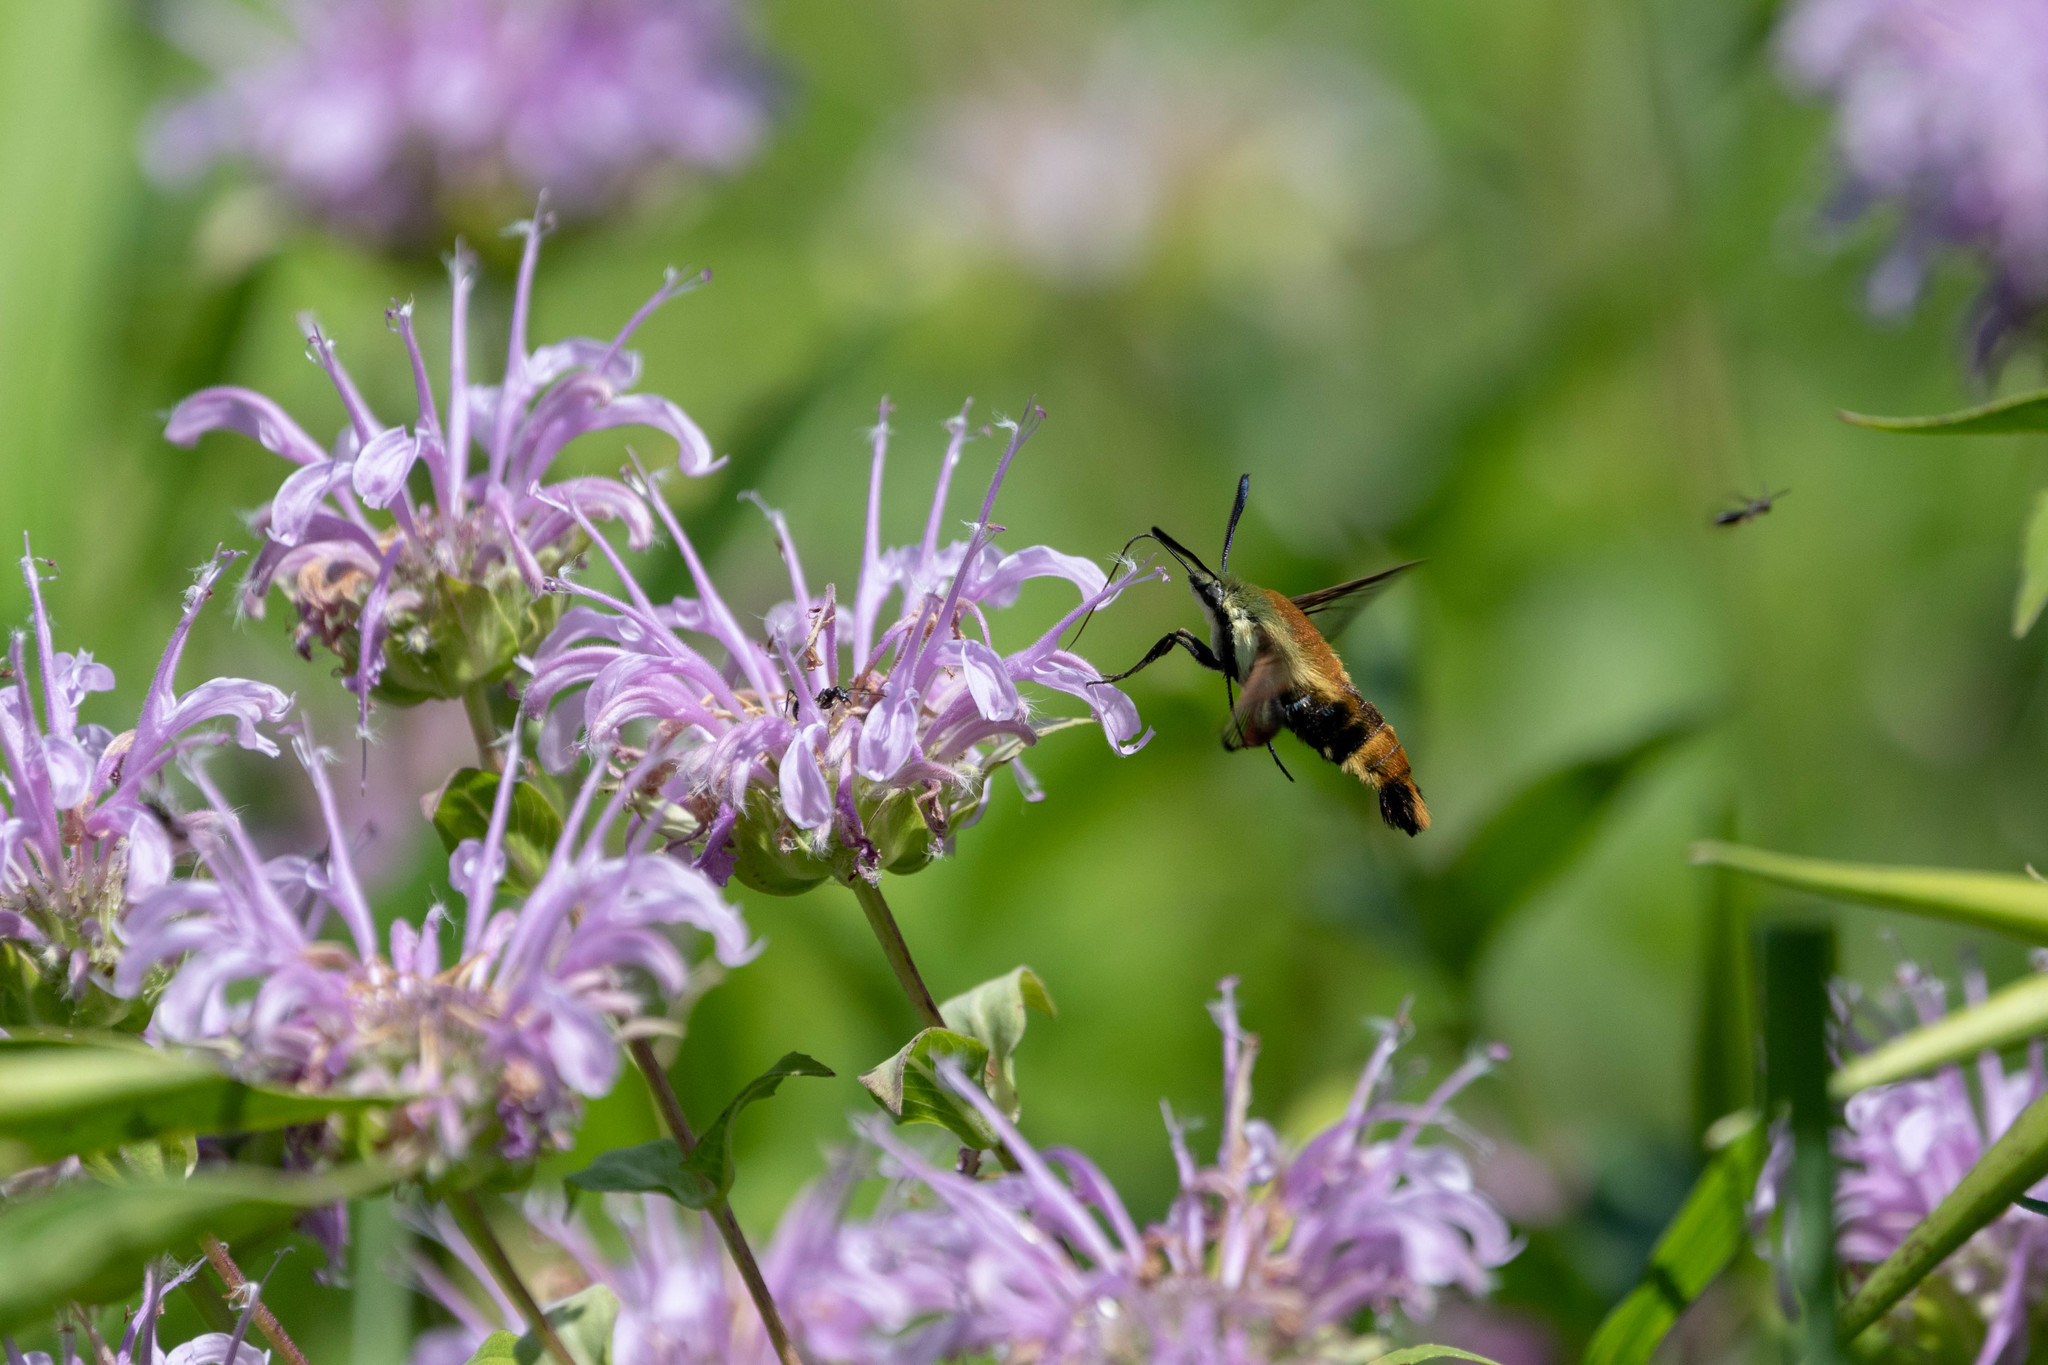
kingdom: Animalia
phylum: Arthropoda
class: Insecta
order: Lepidoptera
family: Sphingidae
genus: Hemaris
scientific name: Hemaris diffinis
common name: Bumblebee moth
